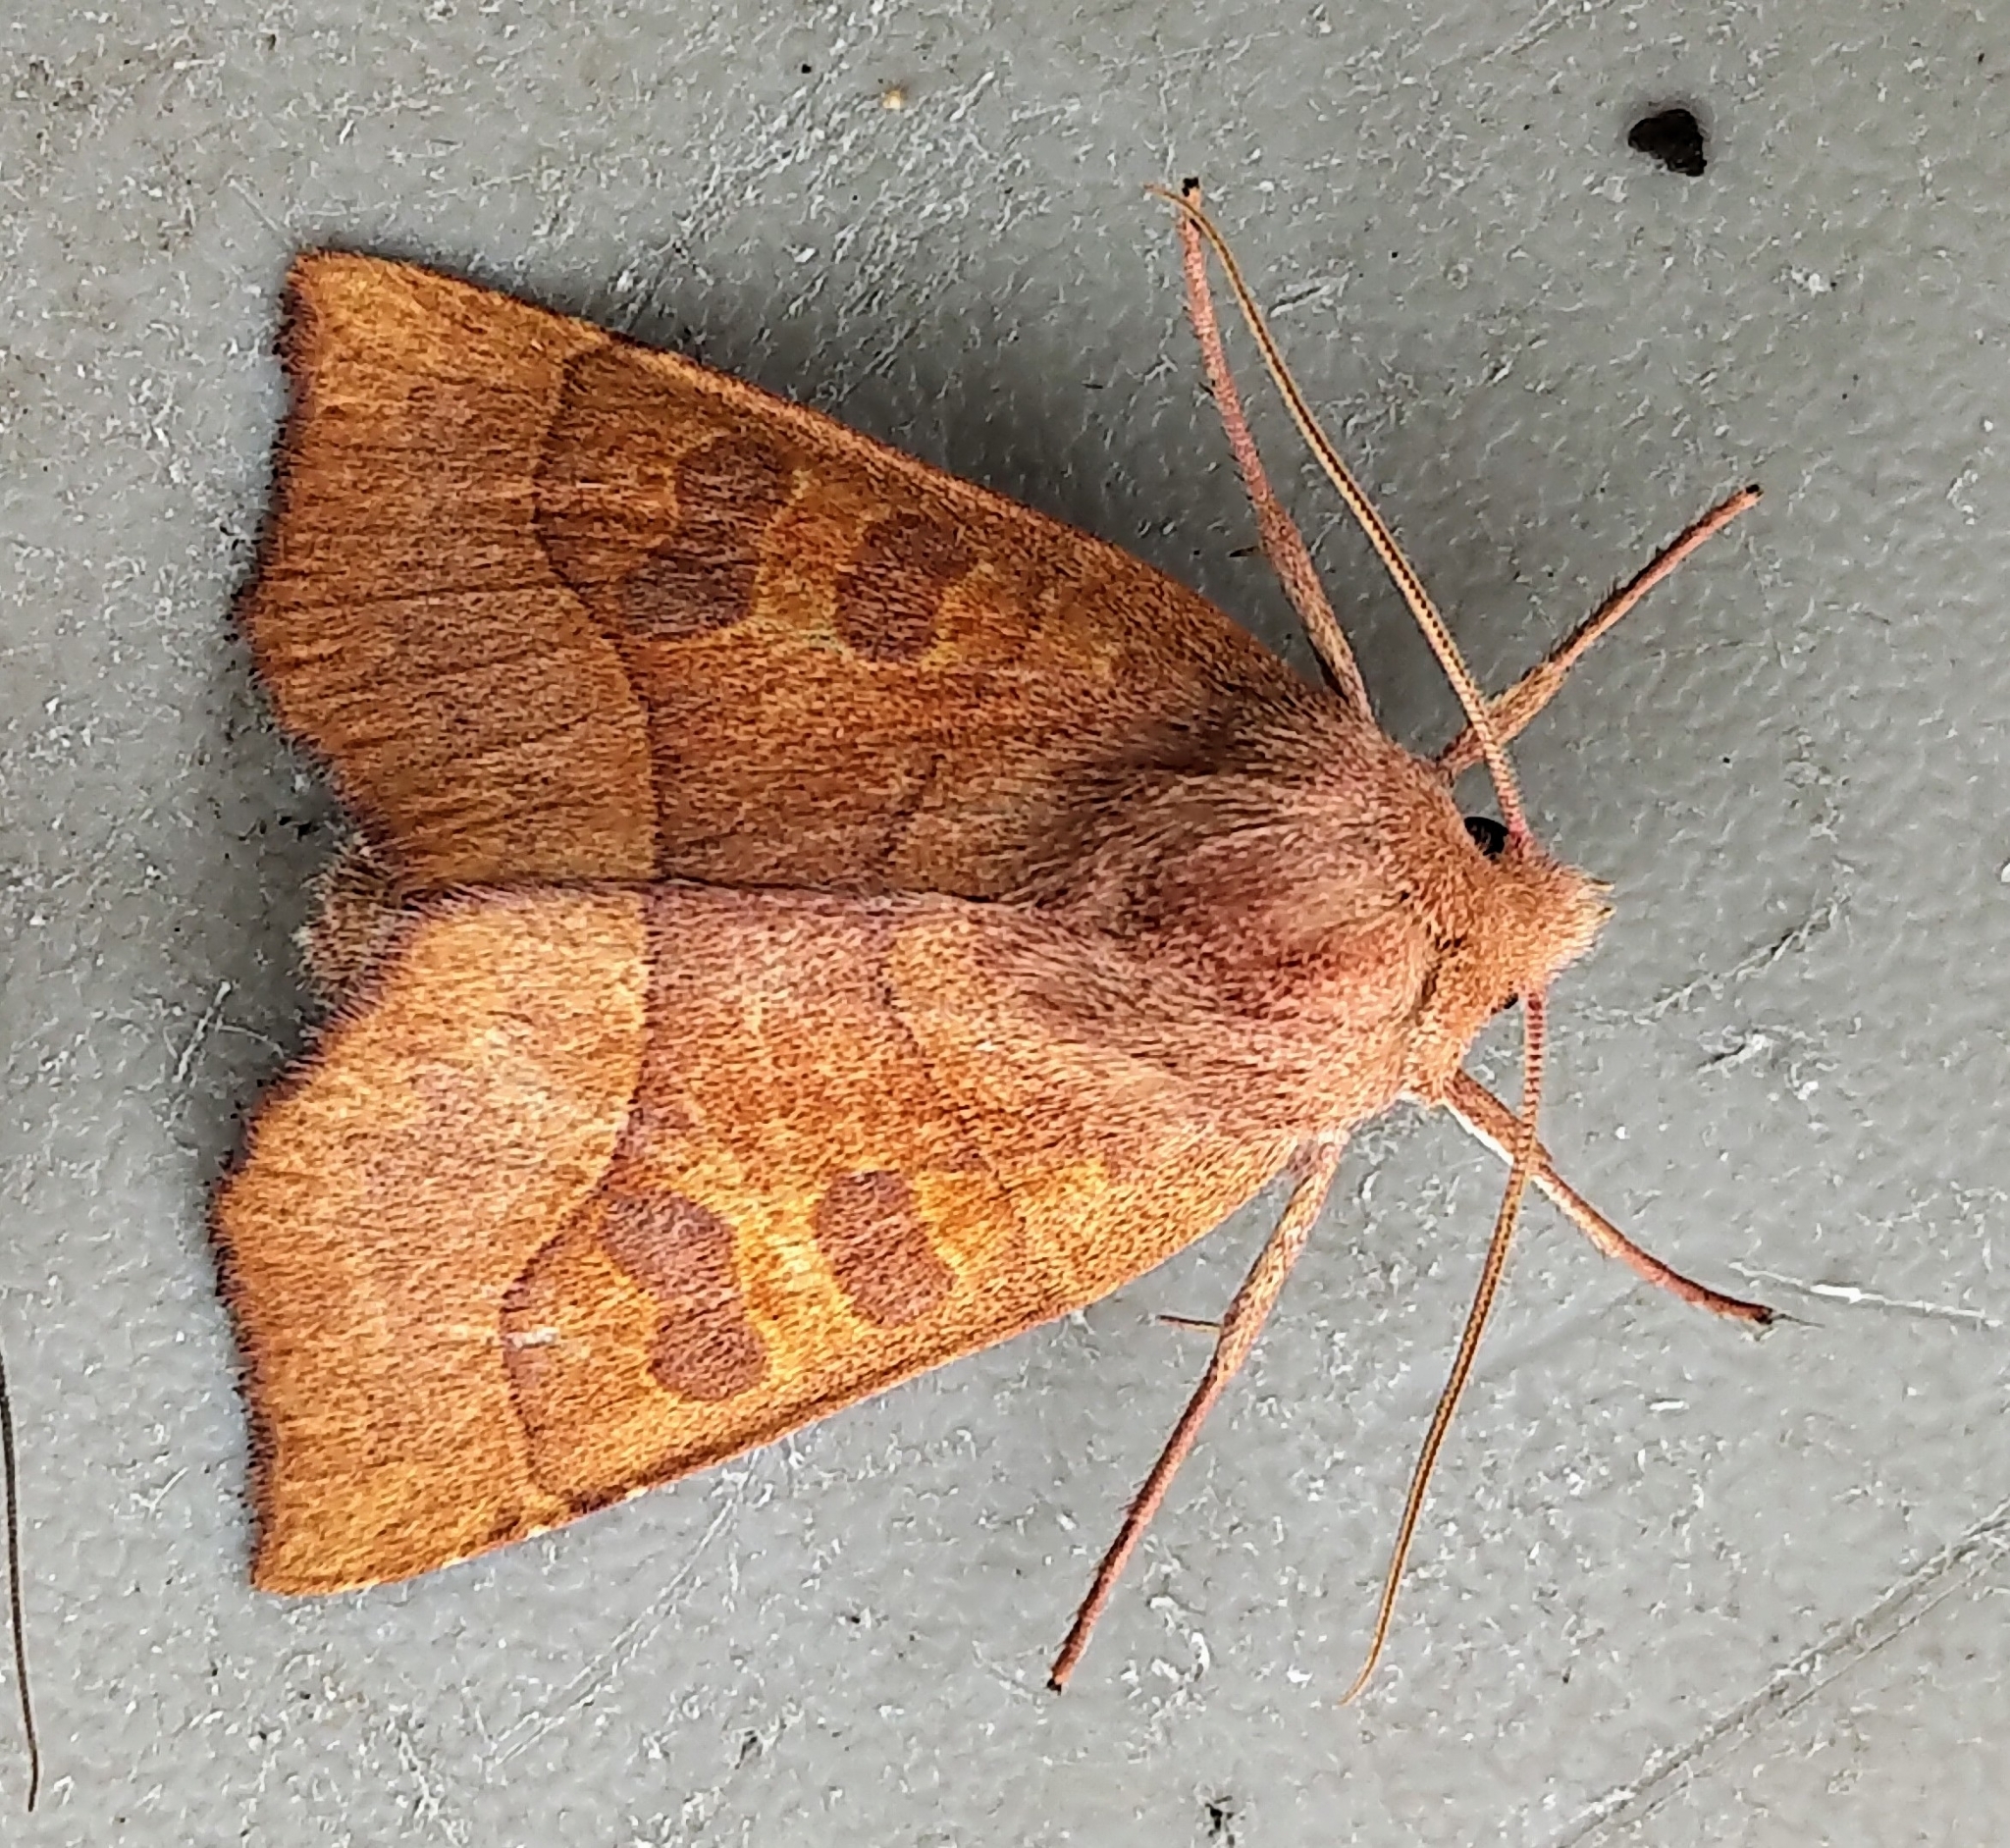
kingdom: Animalia
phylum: Arthropoda
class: Insecta
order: Lepidoptera
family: Noctuidae
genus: Eucirroedia
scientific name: Eucirroedia pampina
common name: Scalloped sallow
